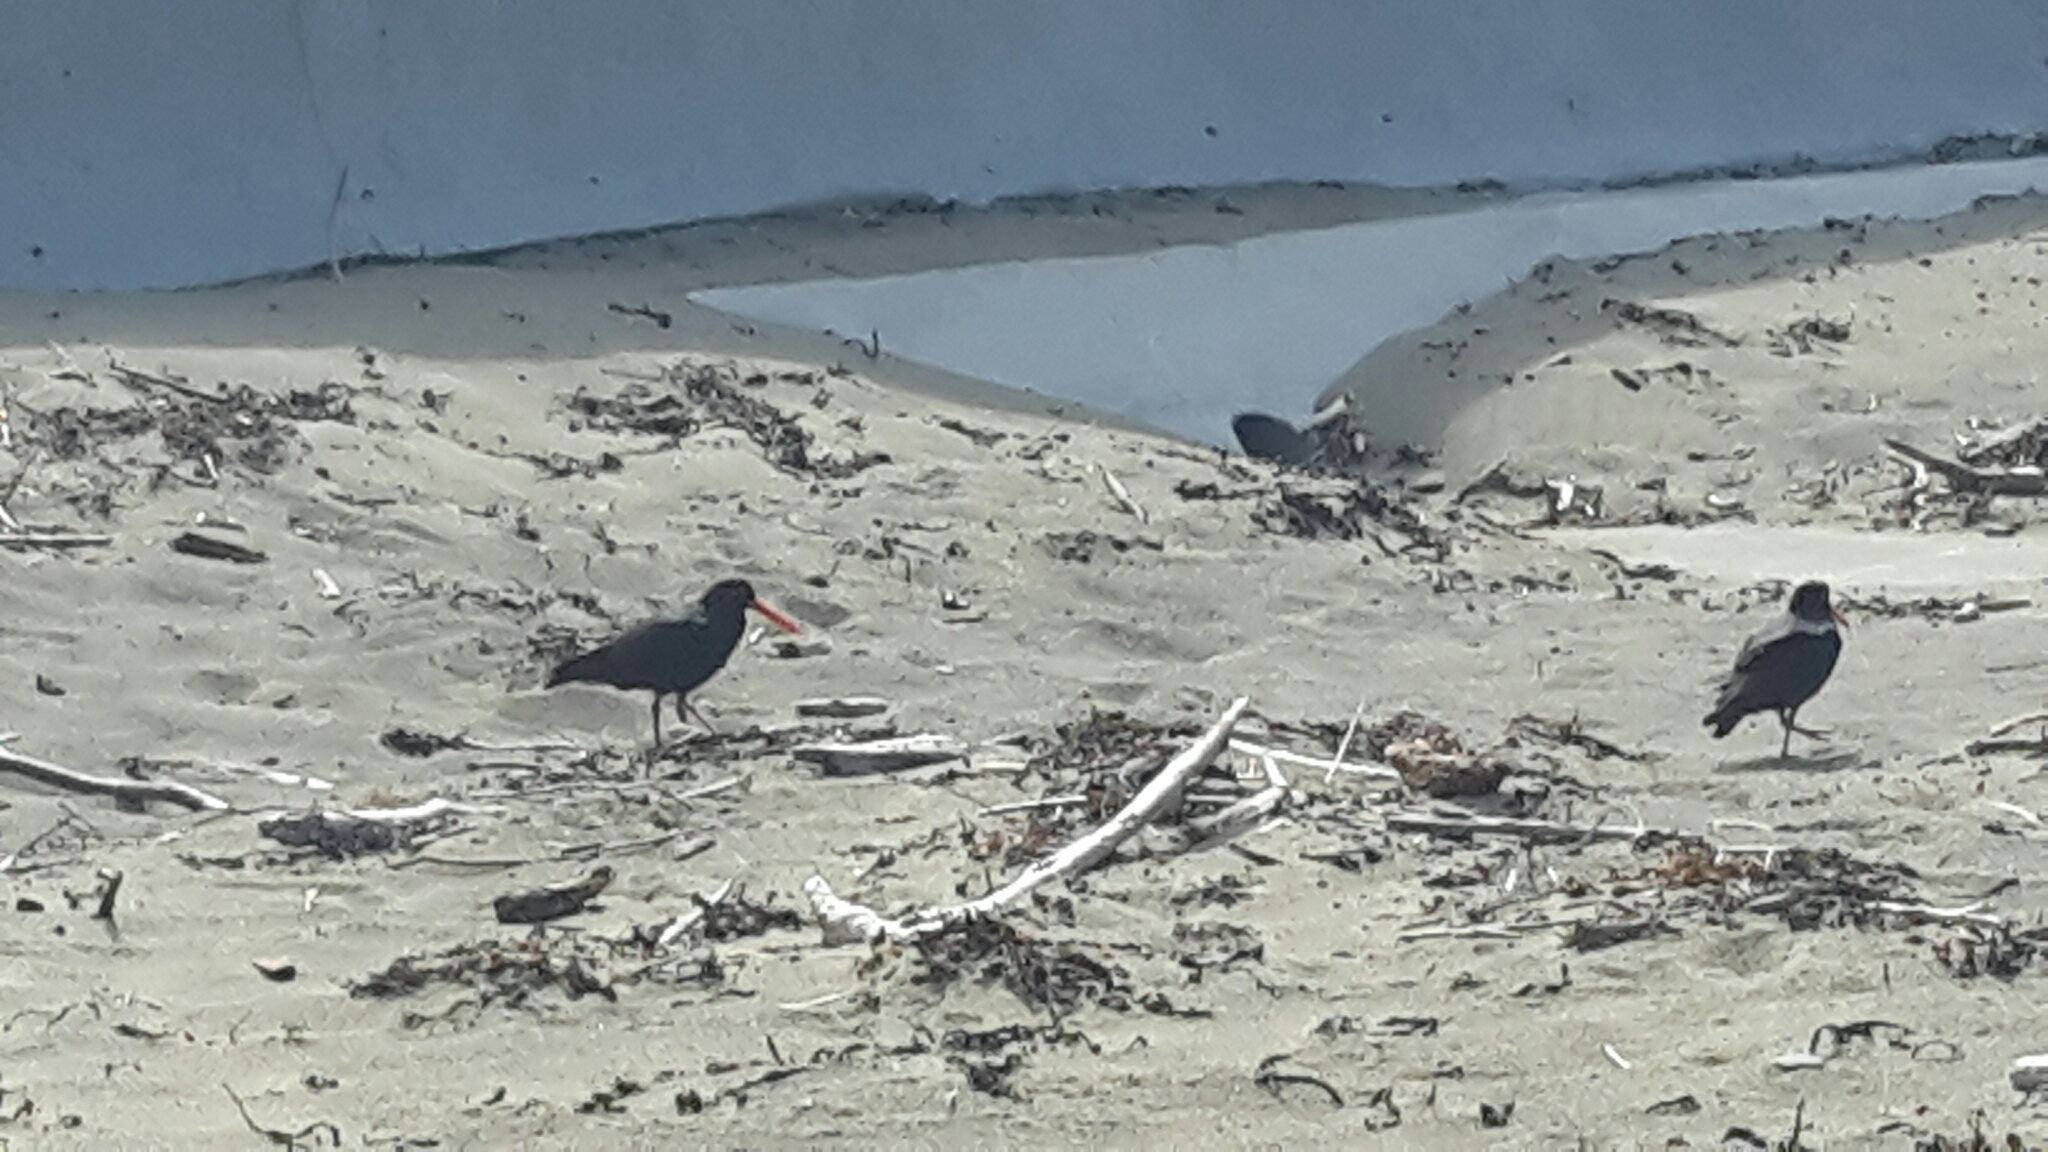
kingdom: Animalia
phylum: Chordata
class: Aves
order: Charadriiformes
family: Haematopodidae
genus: Haematopus
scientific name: Haematopus unicolor
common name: Variable oystercatcher
